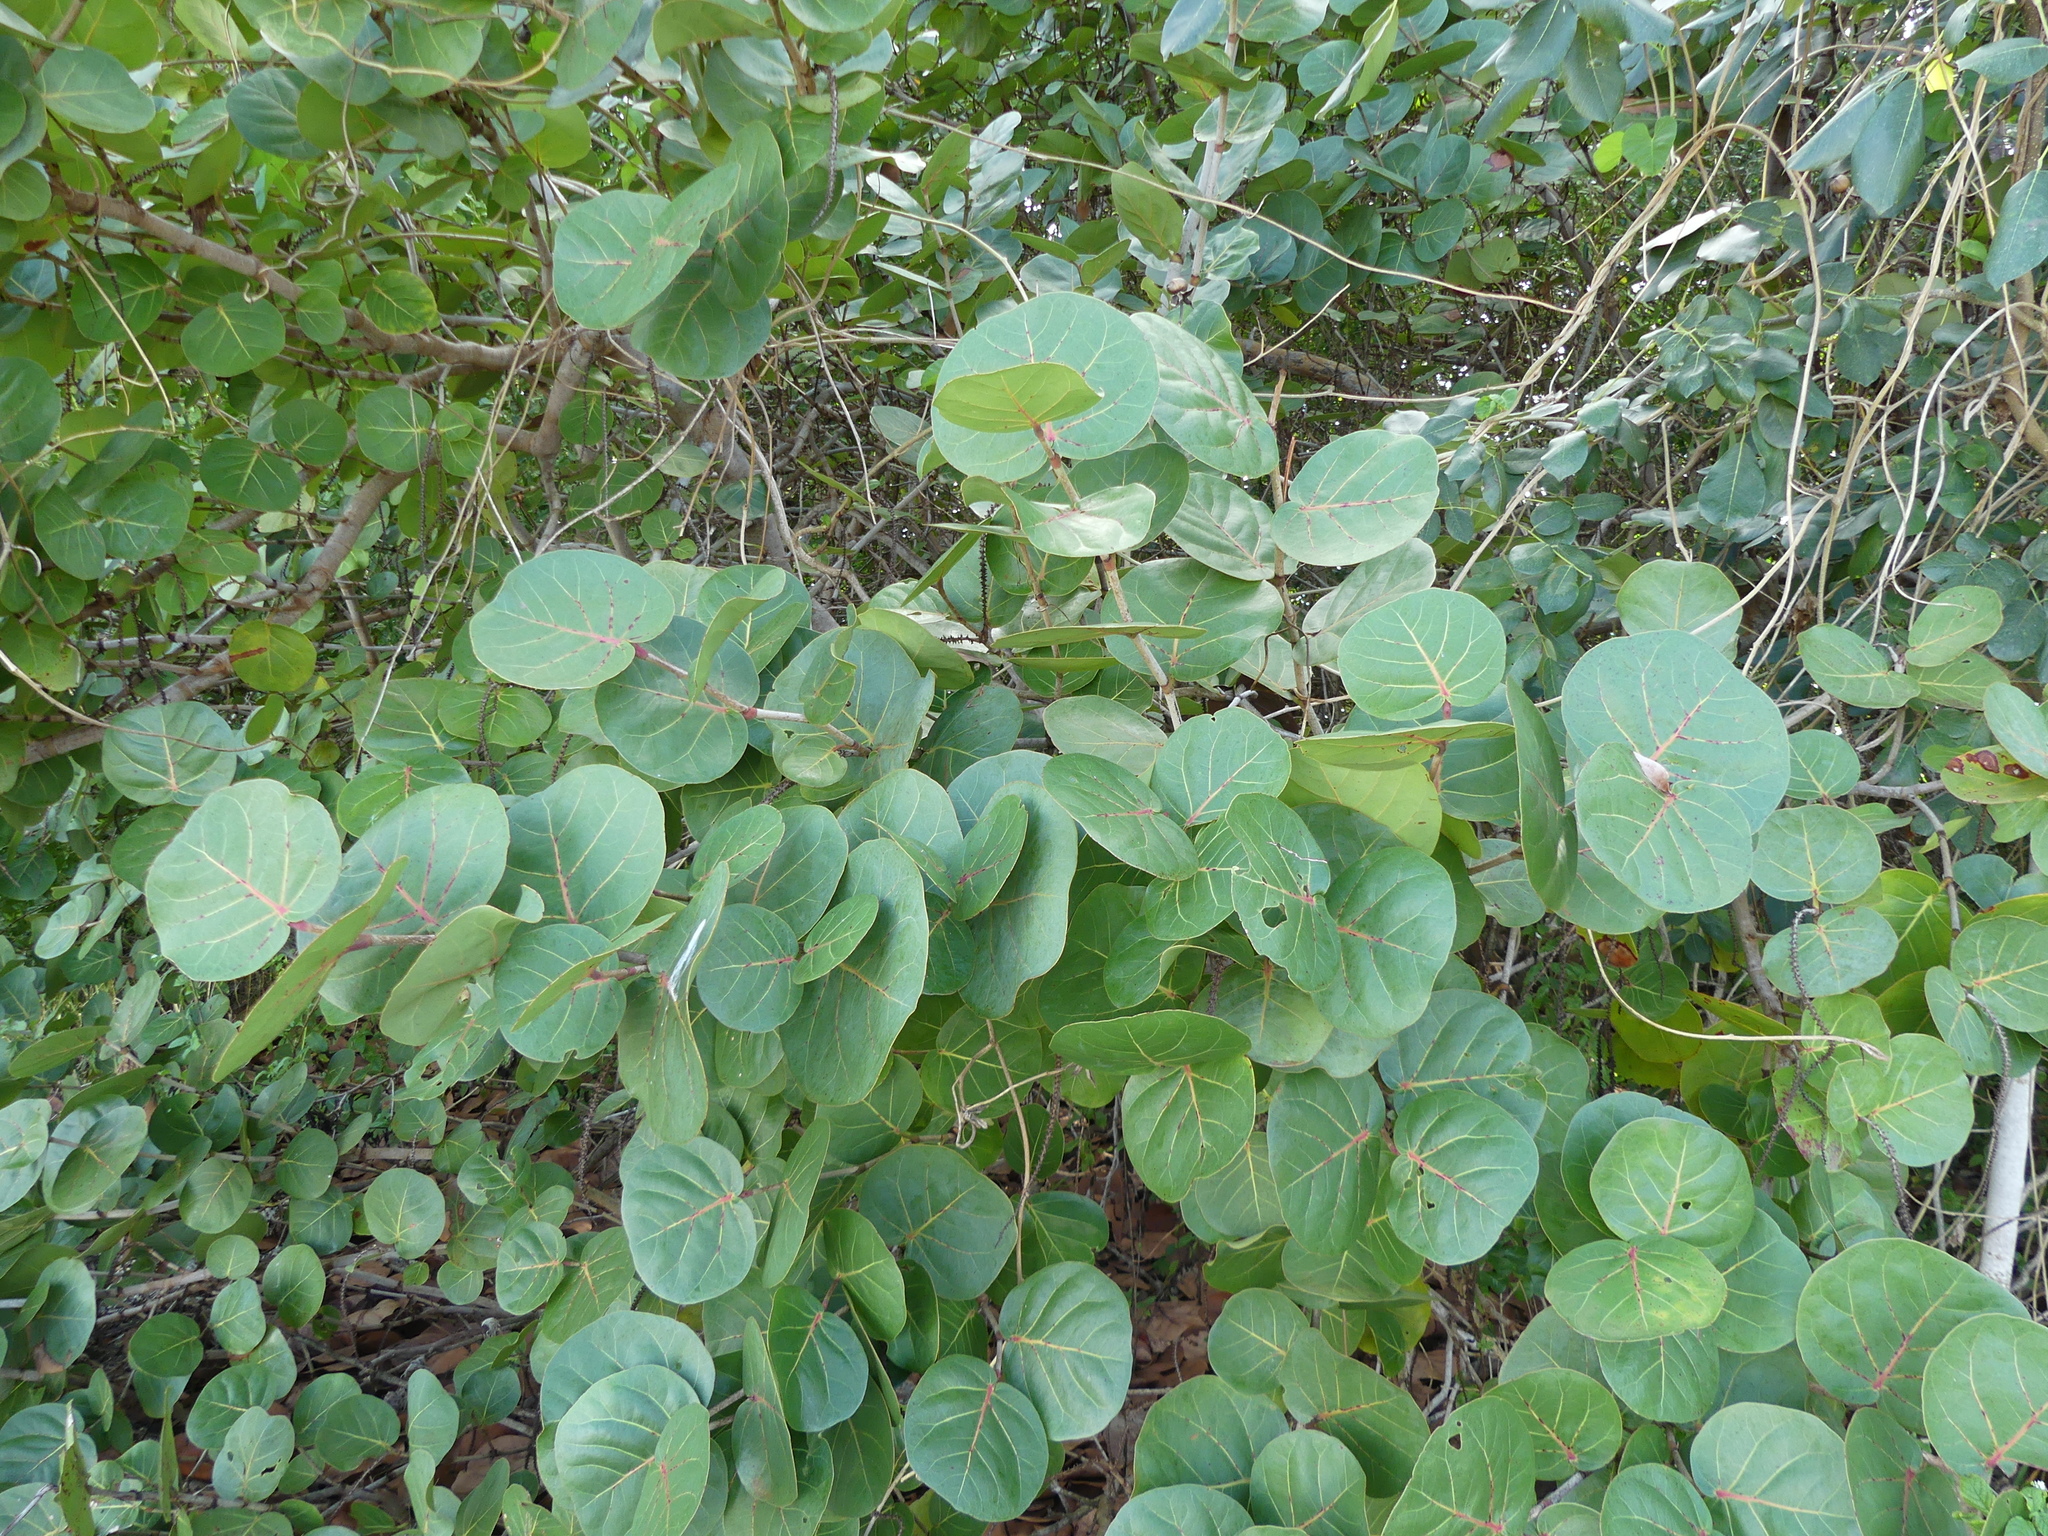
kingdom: Plantae
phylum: Tracheophyta
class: Magnoliopsida
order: Caryophyllales
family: Polygonaceae
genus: Coccoloba
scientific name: Coccoloba uvifera
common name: Seagrape
